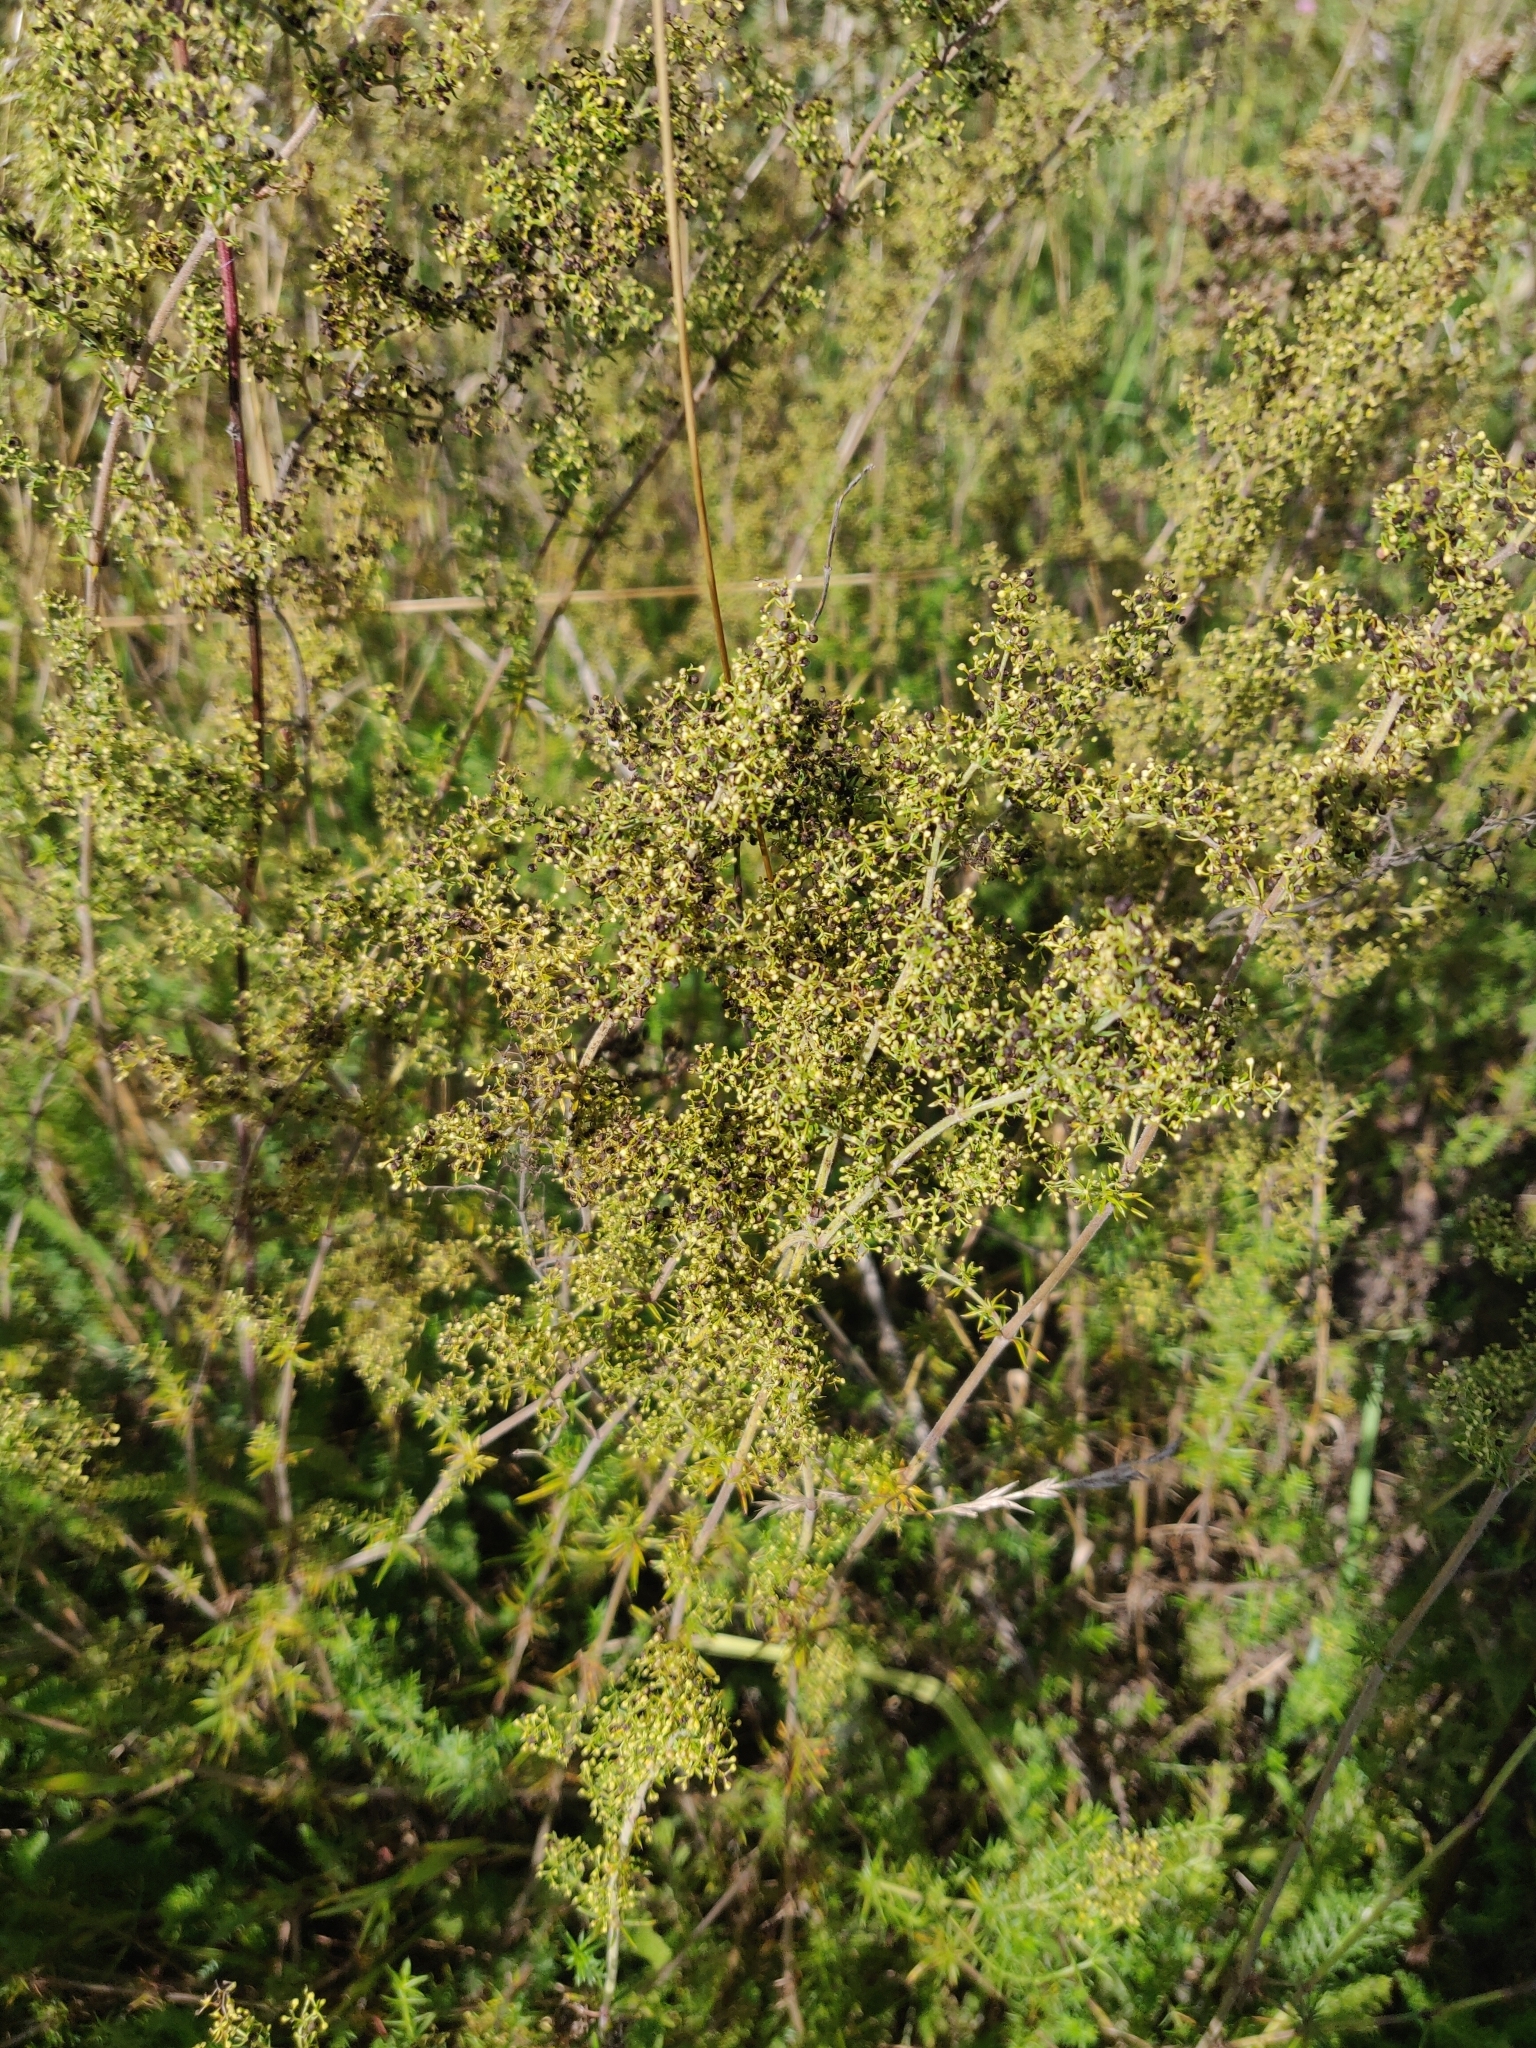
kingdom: Plantae
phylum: Tracheophyta
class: Magnoliopsida
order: Gentianales
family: Rubiaceae
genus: Galium
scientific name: Galium verum
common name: Lady's bedstraw
